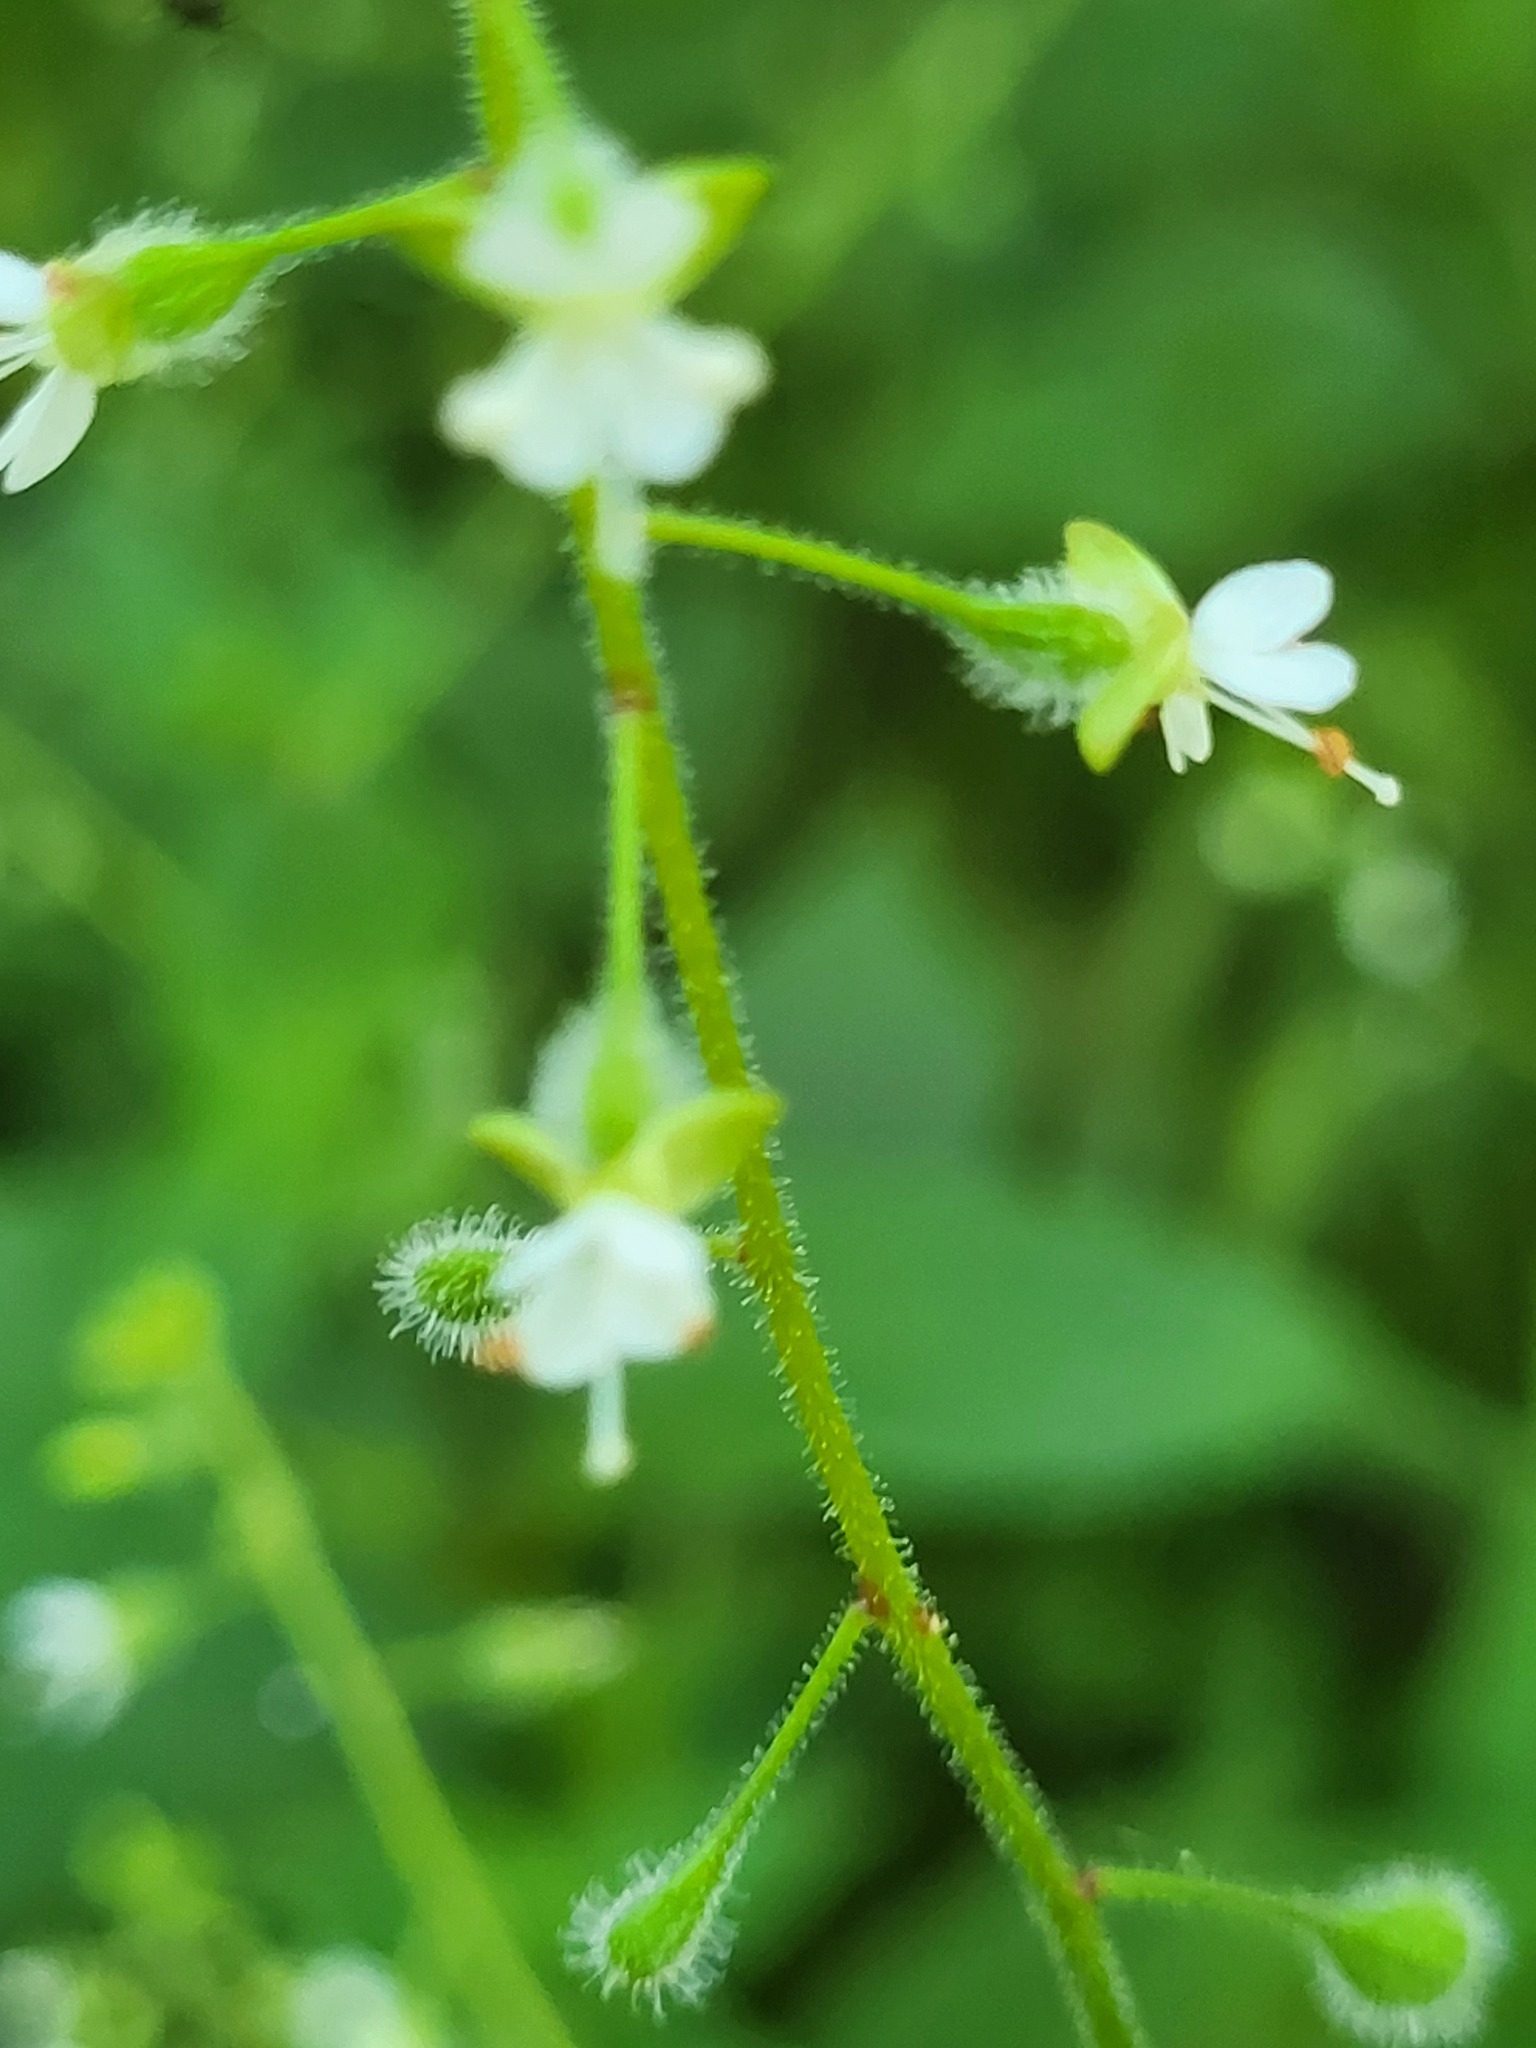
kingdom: Plantae
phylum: Tracheophyta
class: Magnoliopsida
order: Myrtales
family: Onagraceae
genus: Circaea
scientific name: Circaea canadensis
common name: Broad-leaved enchanter's nightshade
